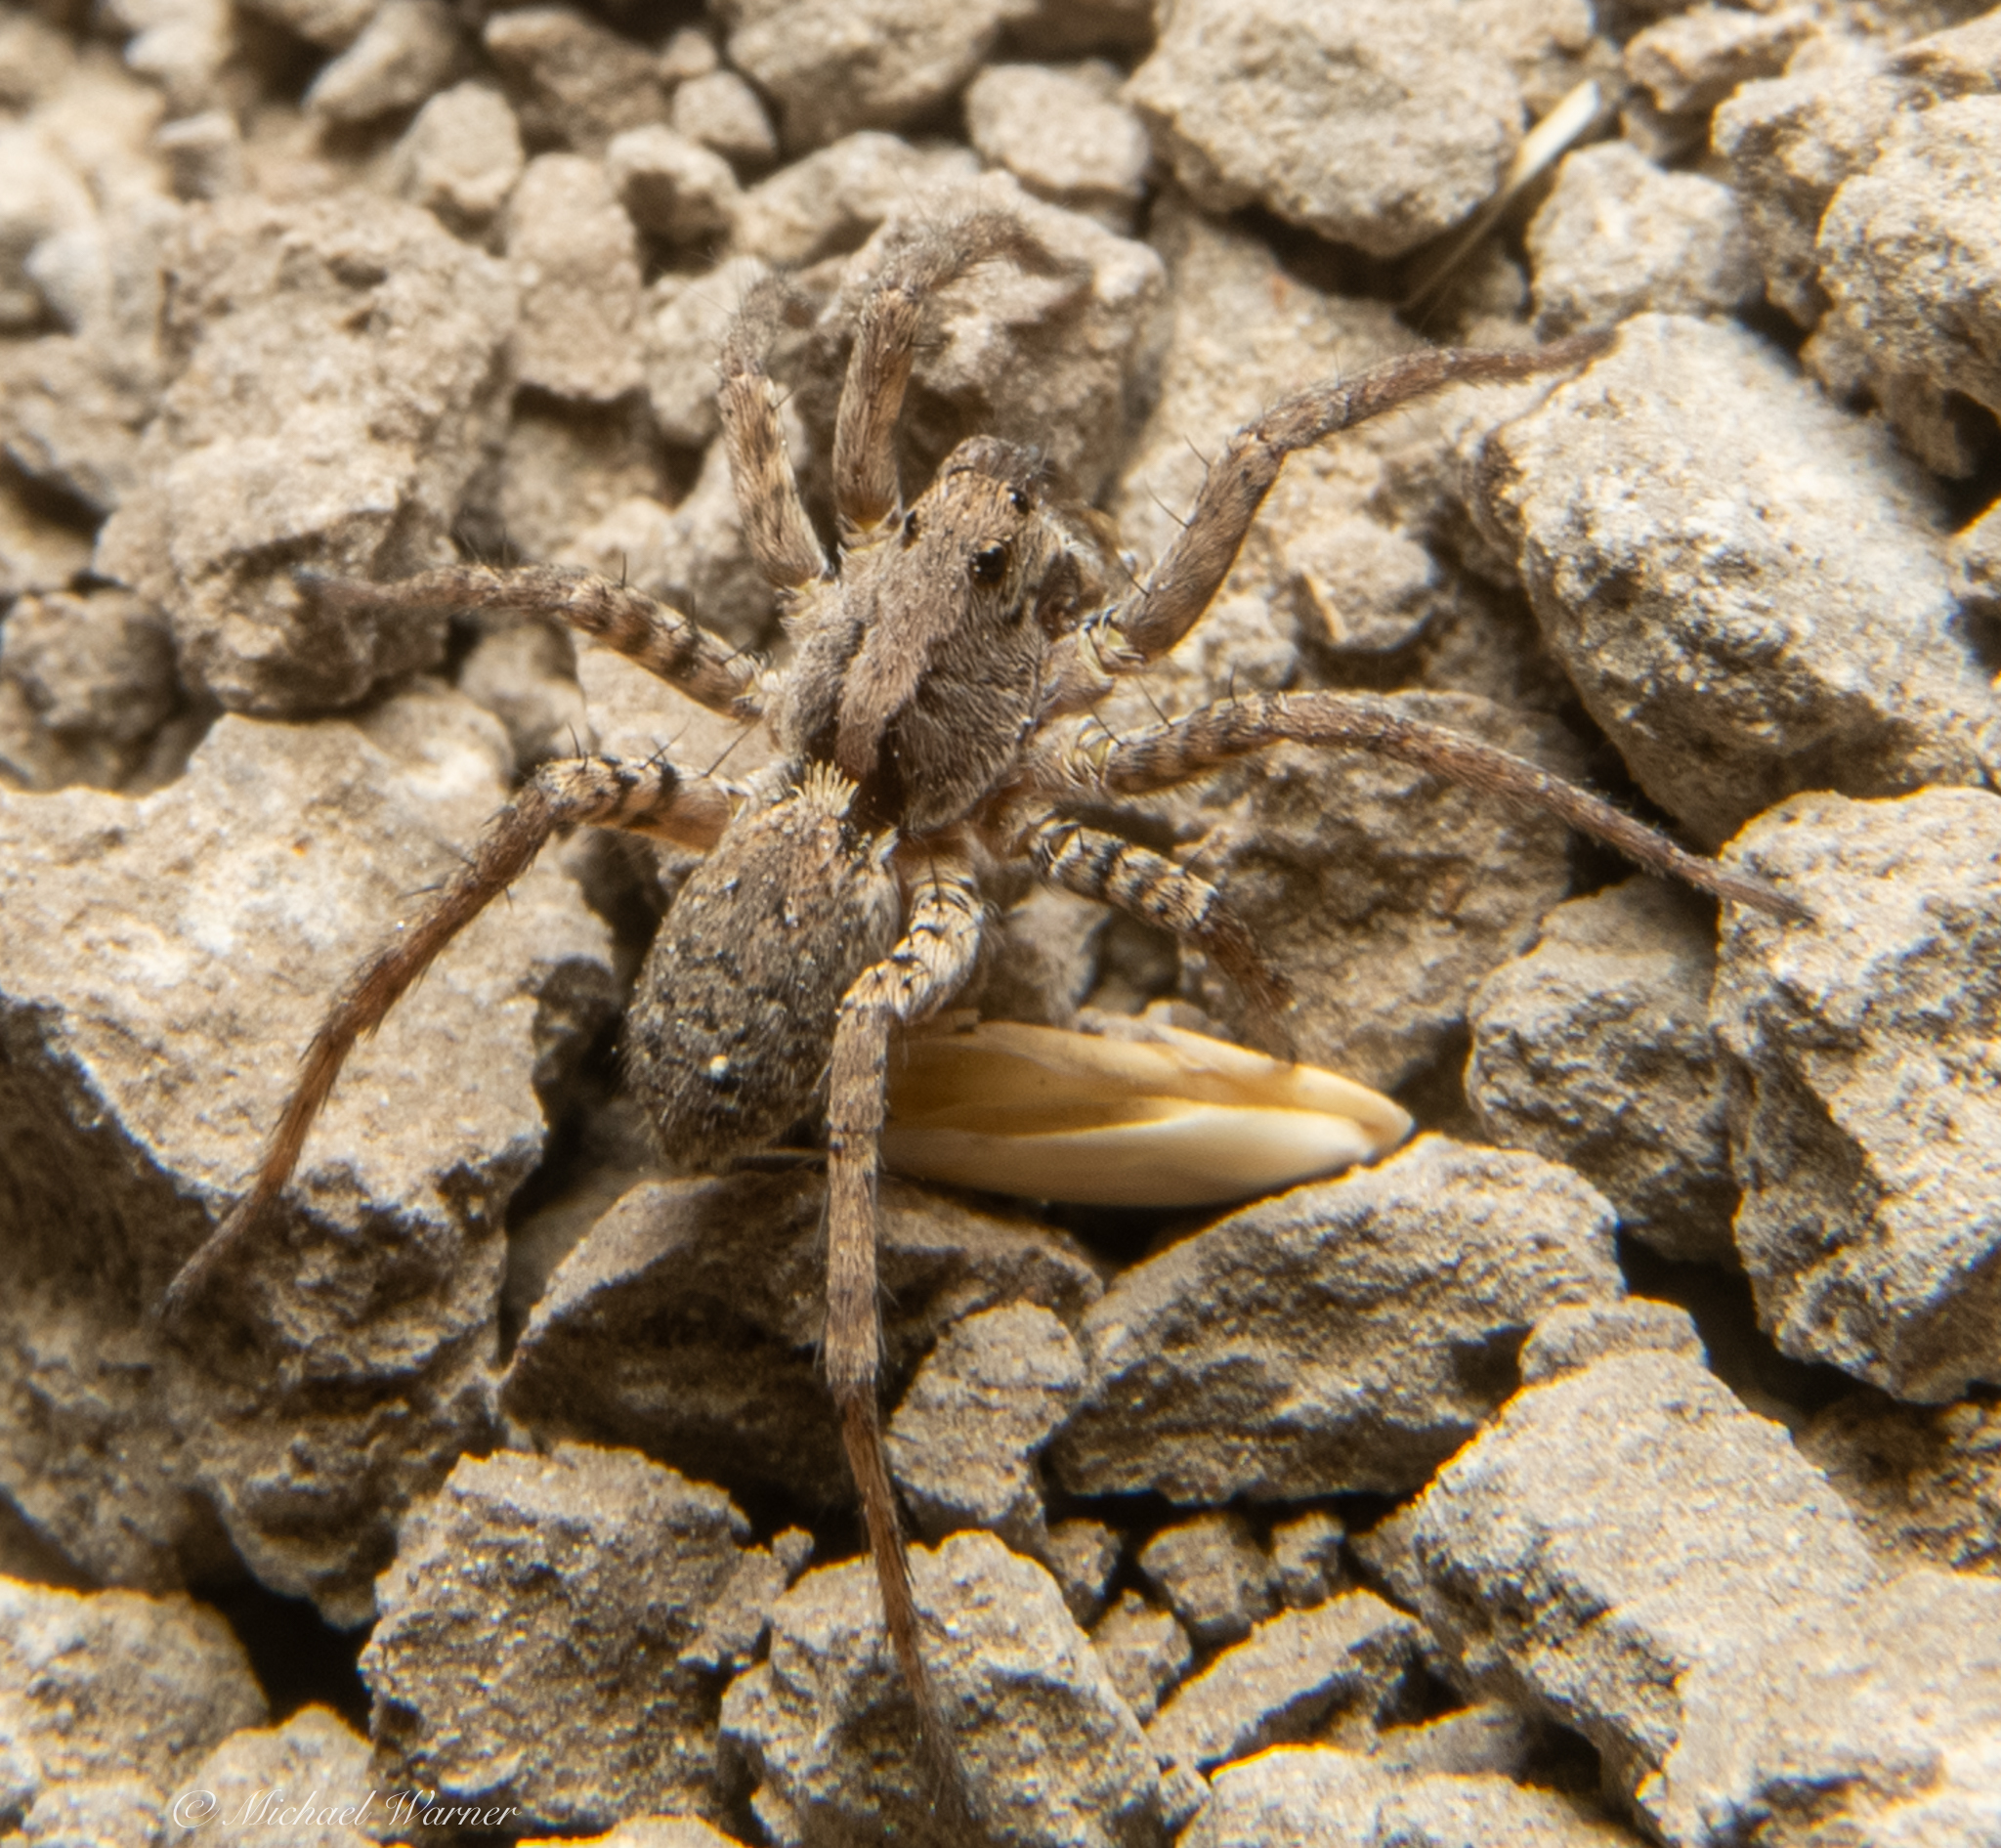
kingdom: Animalia
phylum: Arthropoda
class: Arachnida
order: Araneae
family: Lycosidae
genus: Alopecosa
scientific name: Alopecosa kochi
